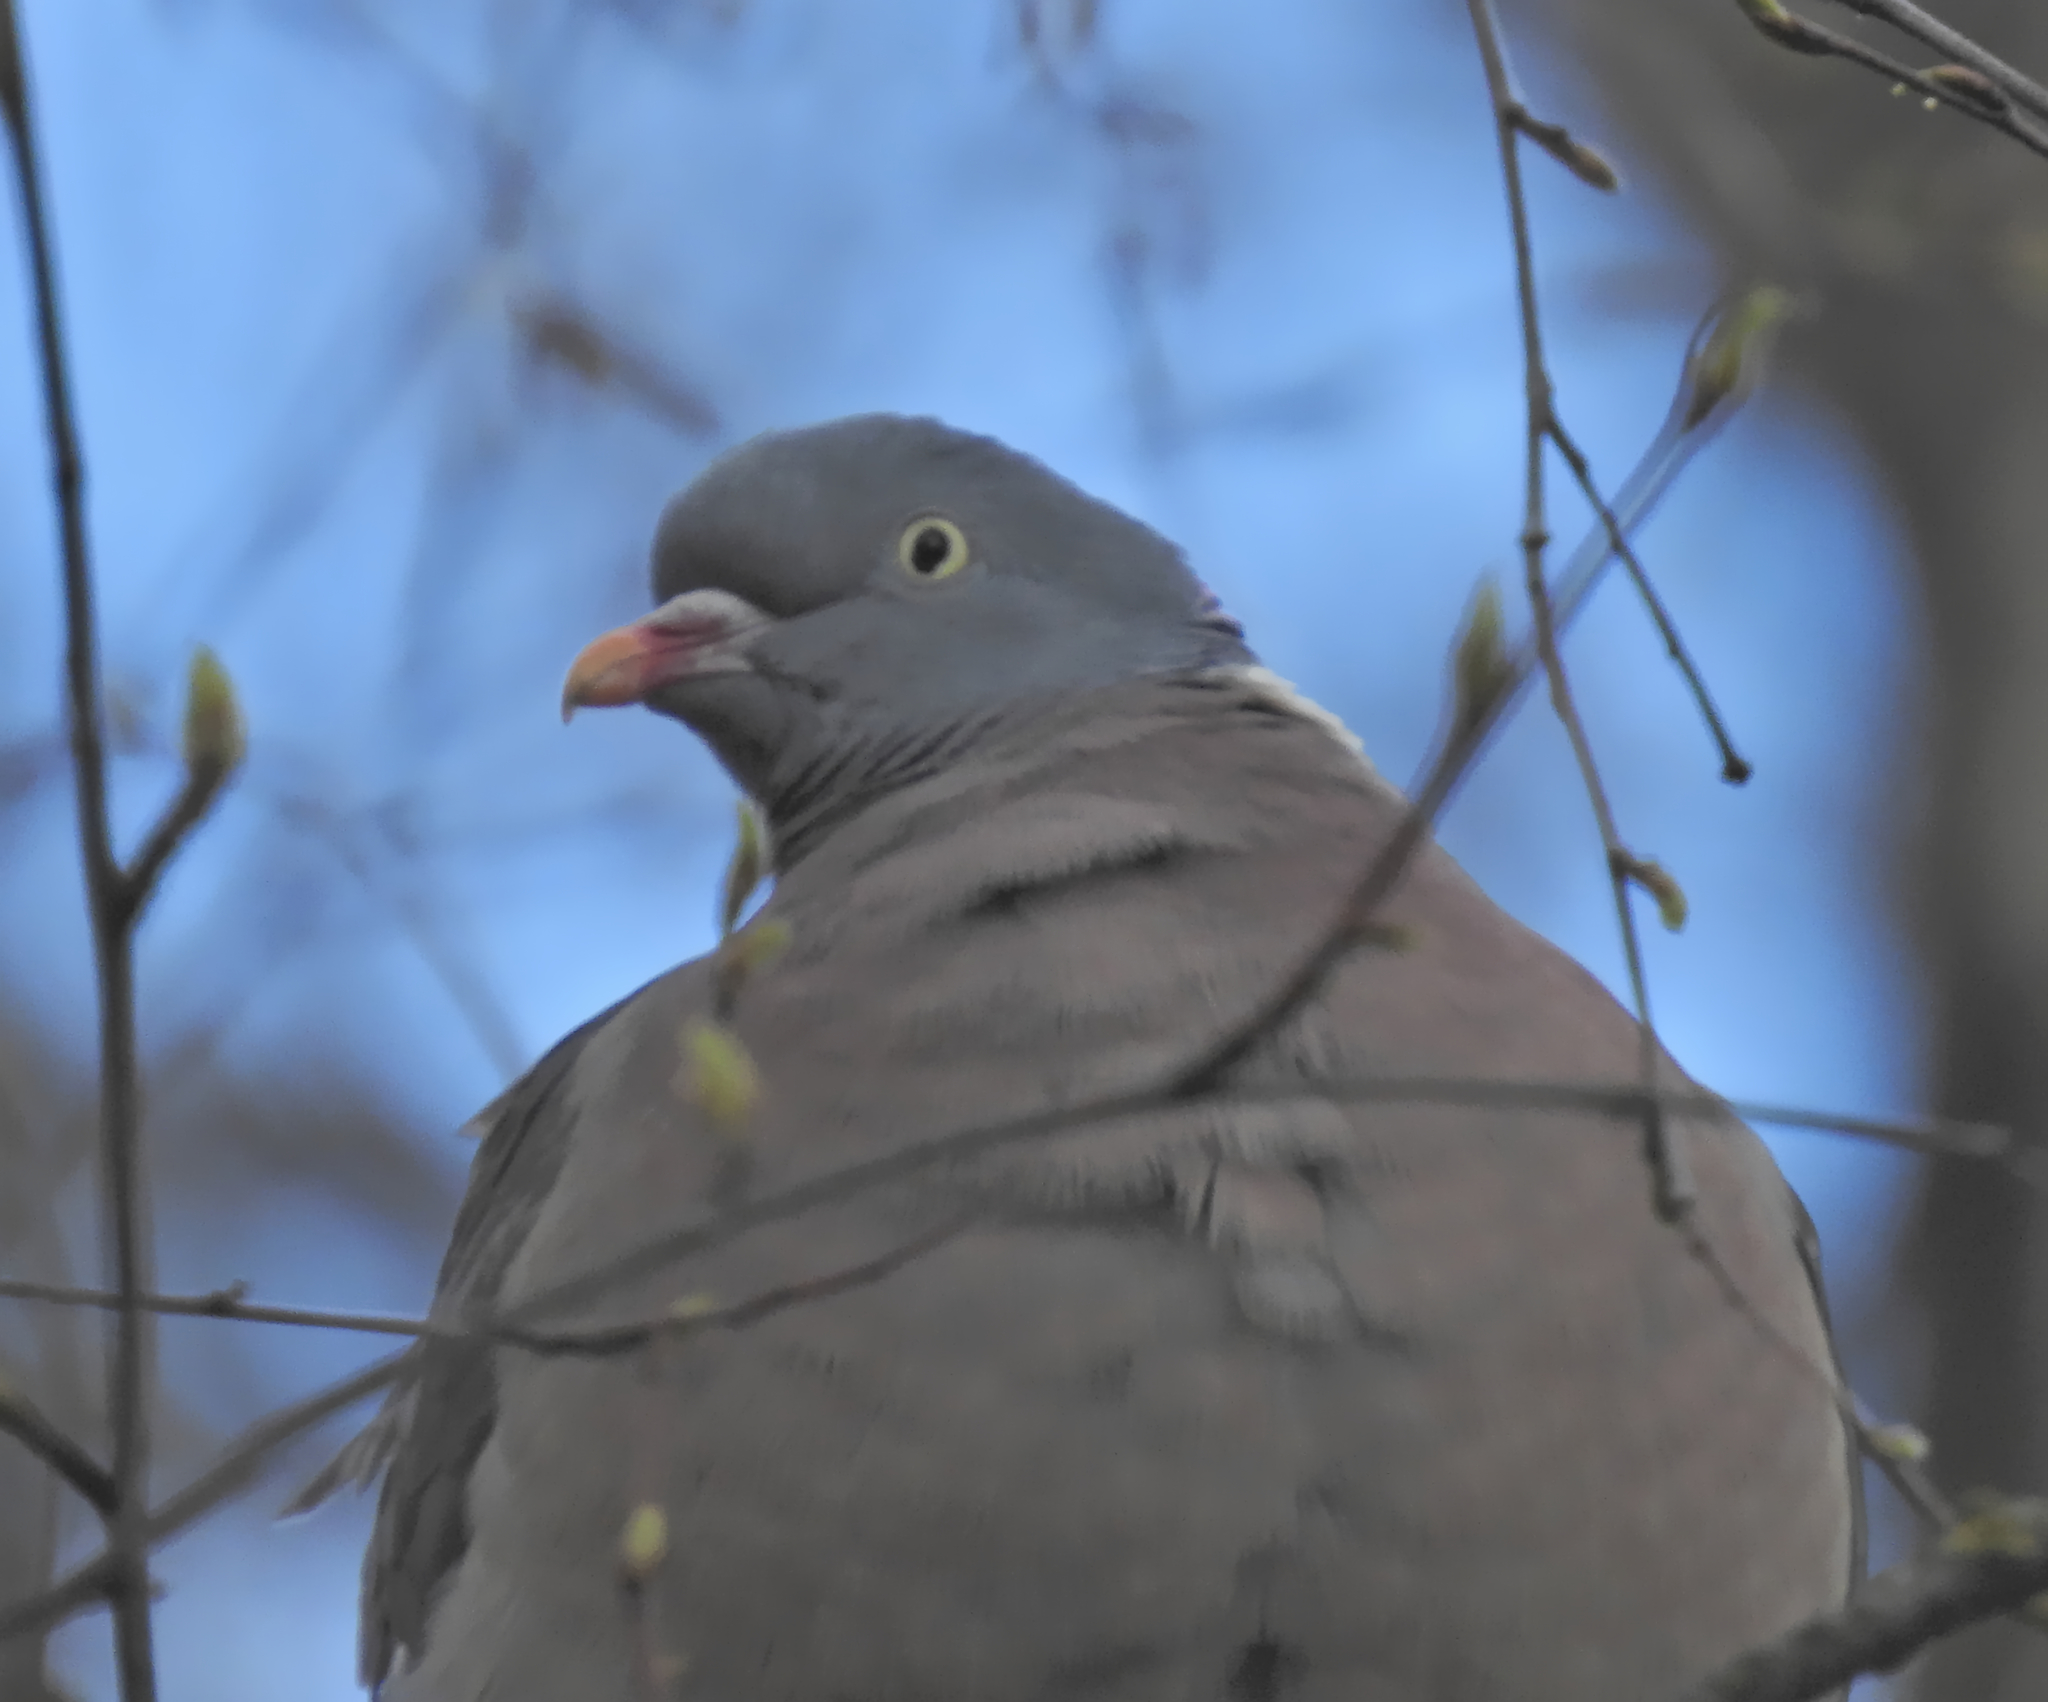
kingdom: Animalia
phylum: Chordata
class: Aves
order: Columbiformes
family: Columbidae
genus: Columba
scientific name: Columba palumbus
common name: Common wood pigeon
